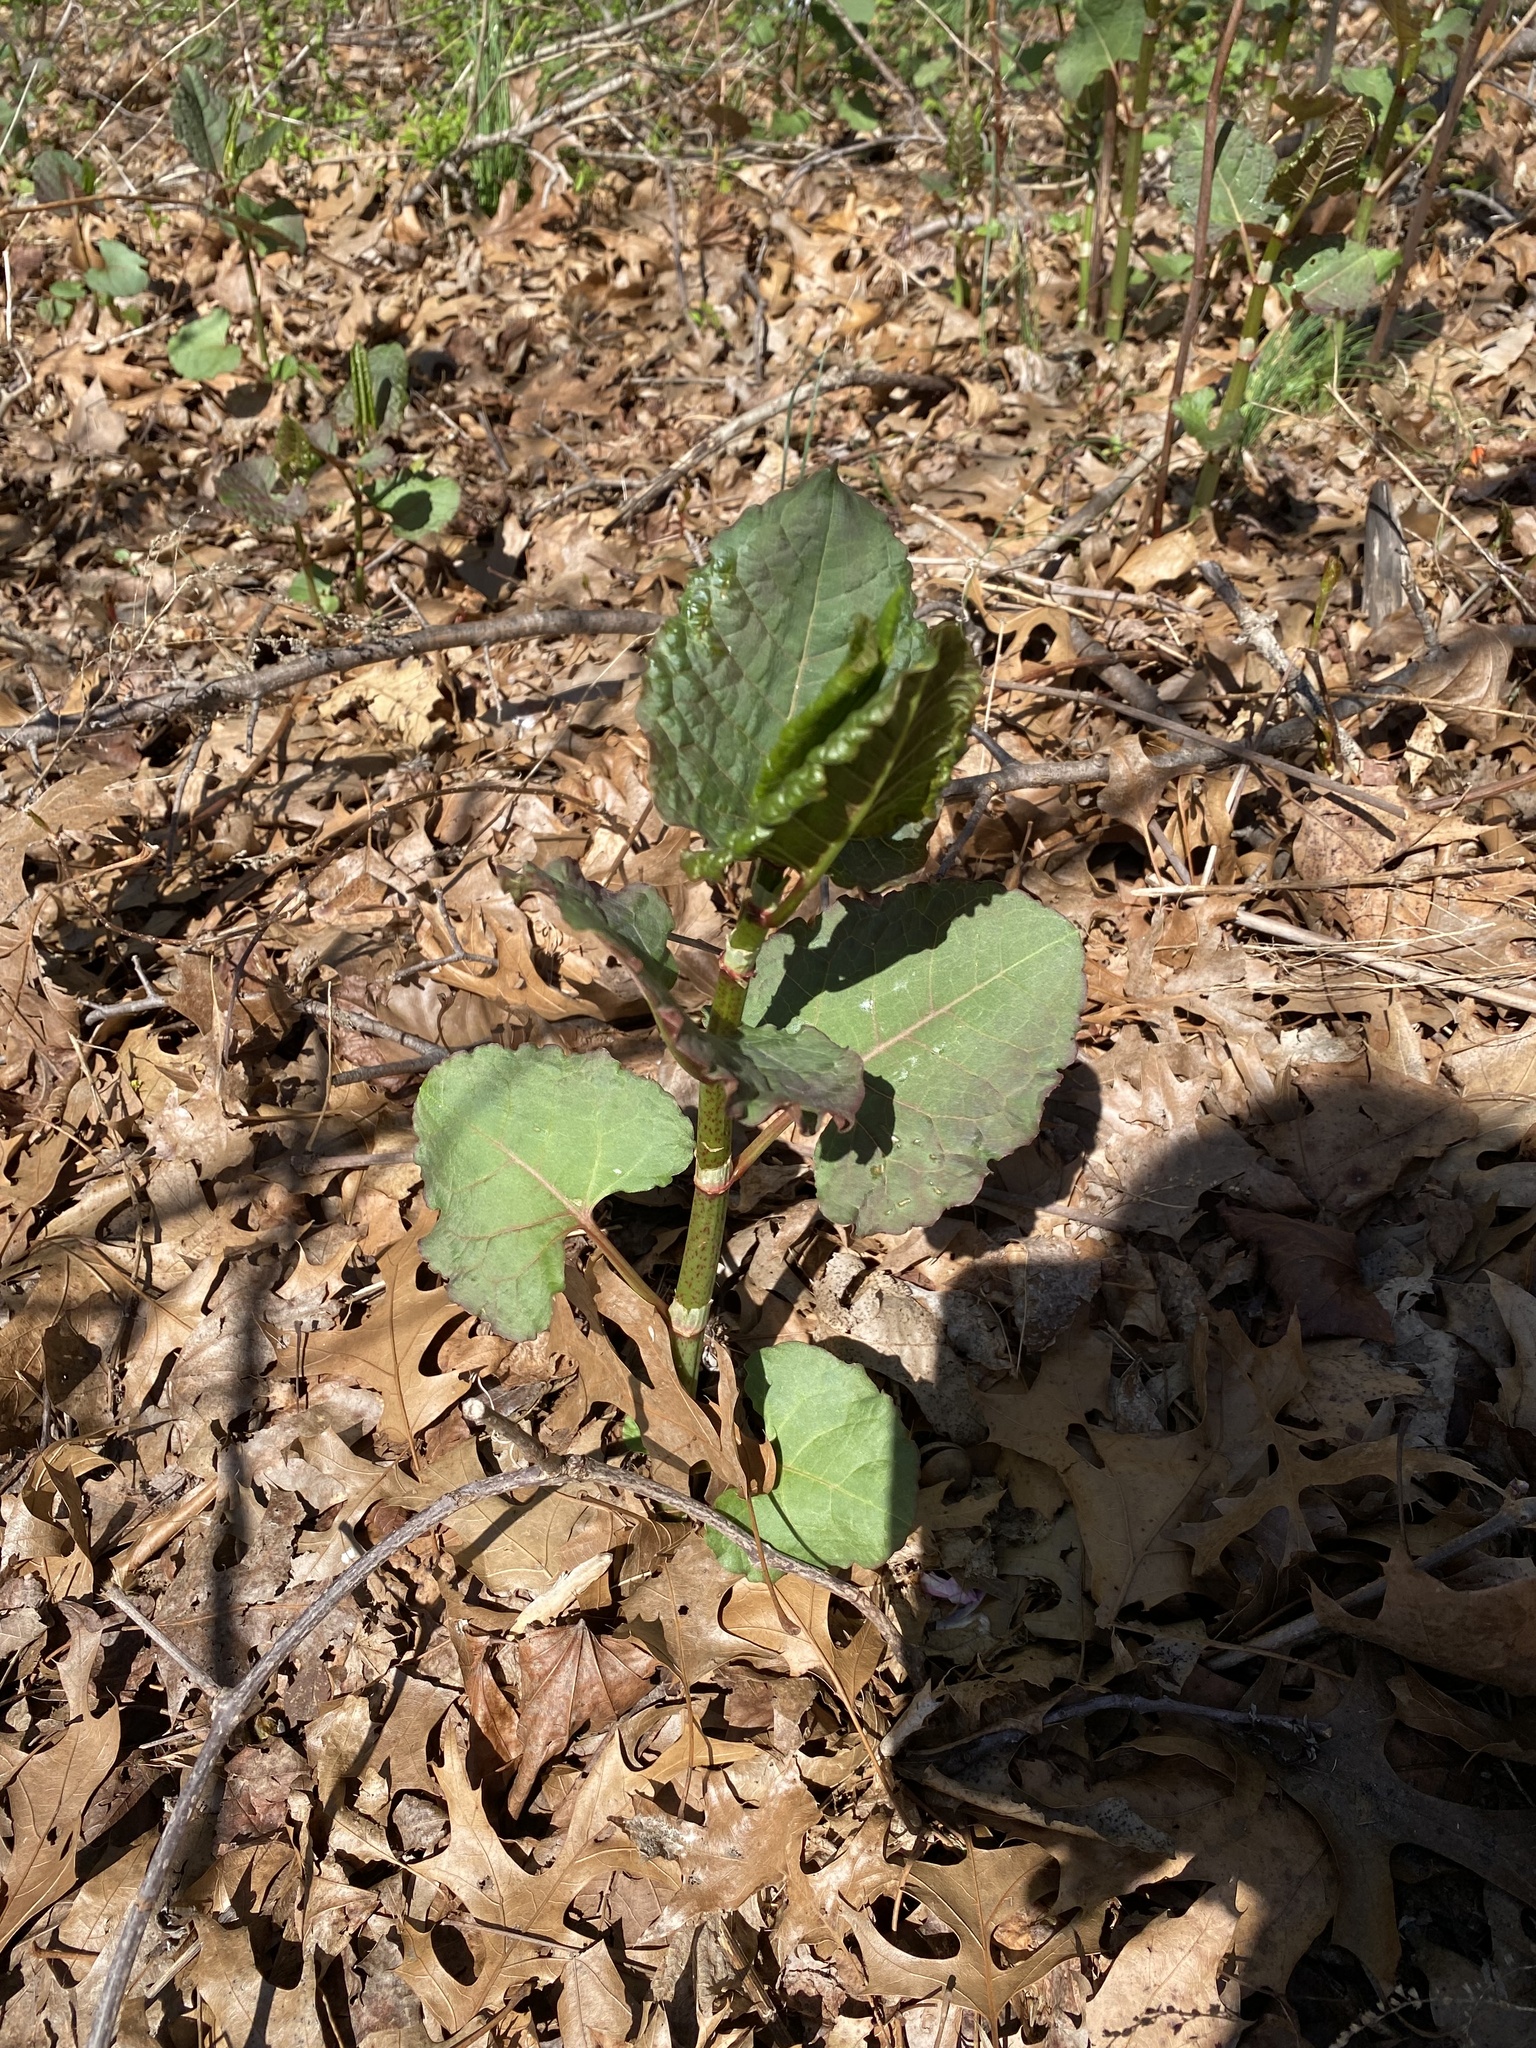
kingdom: Plantae
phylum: Tracheophyta
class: Magnoliopsida
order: Caryophyllales
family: Polygonaceae
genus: Reynoutria
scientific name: Reynoutria japonica
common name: Japanese knotweed
